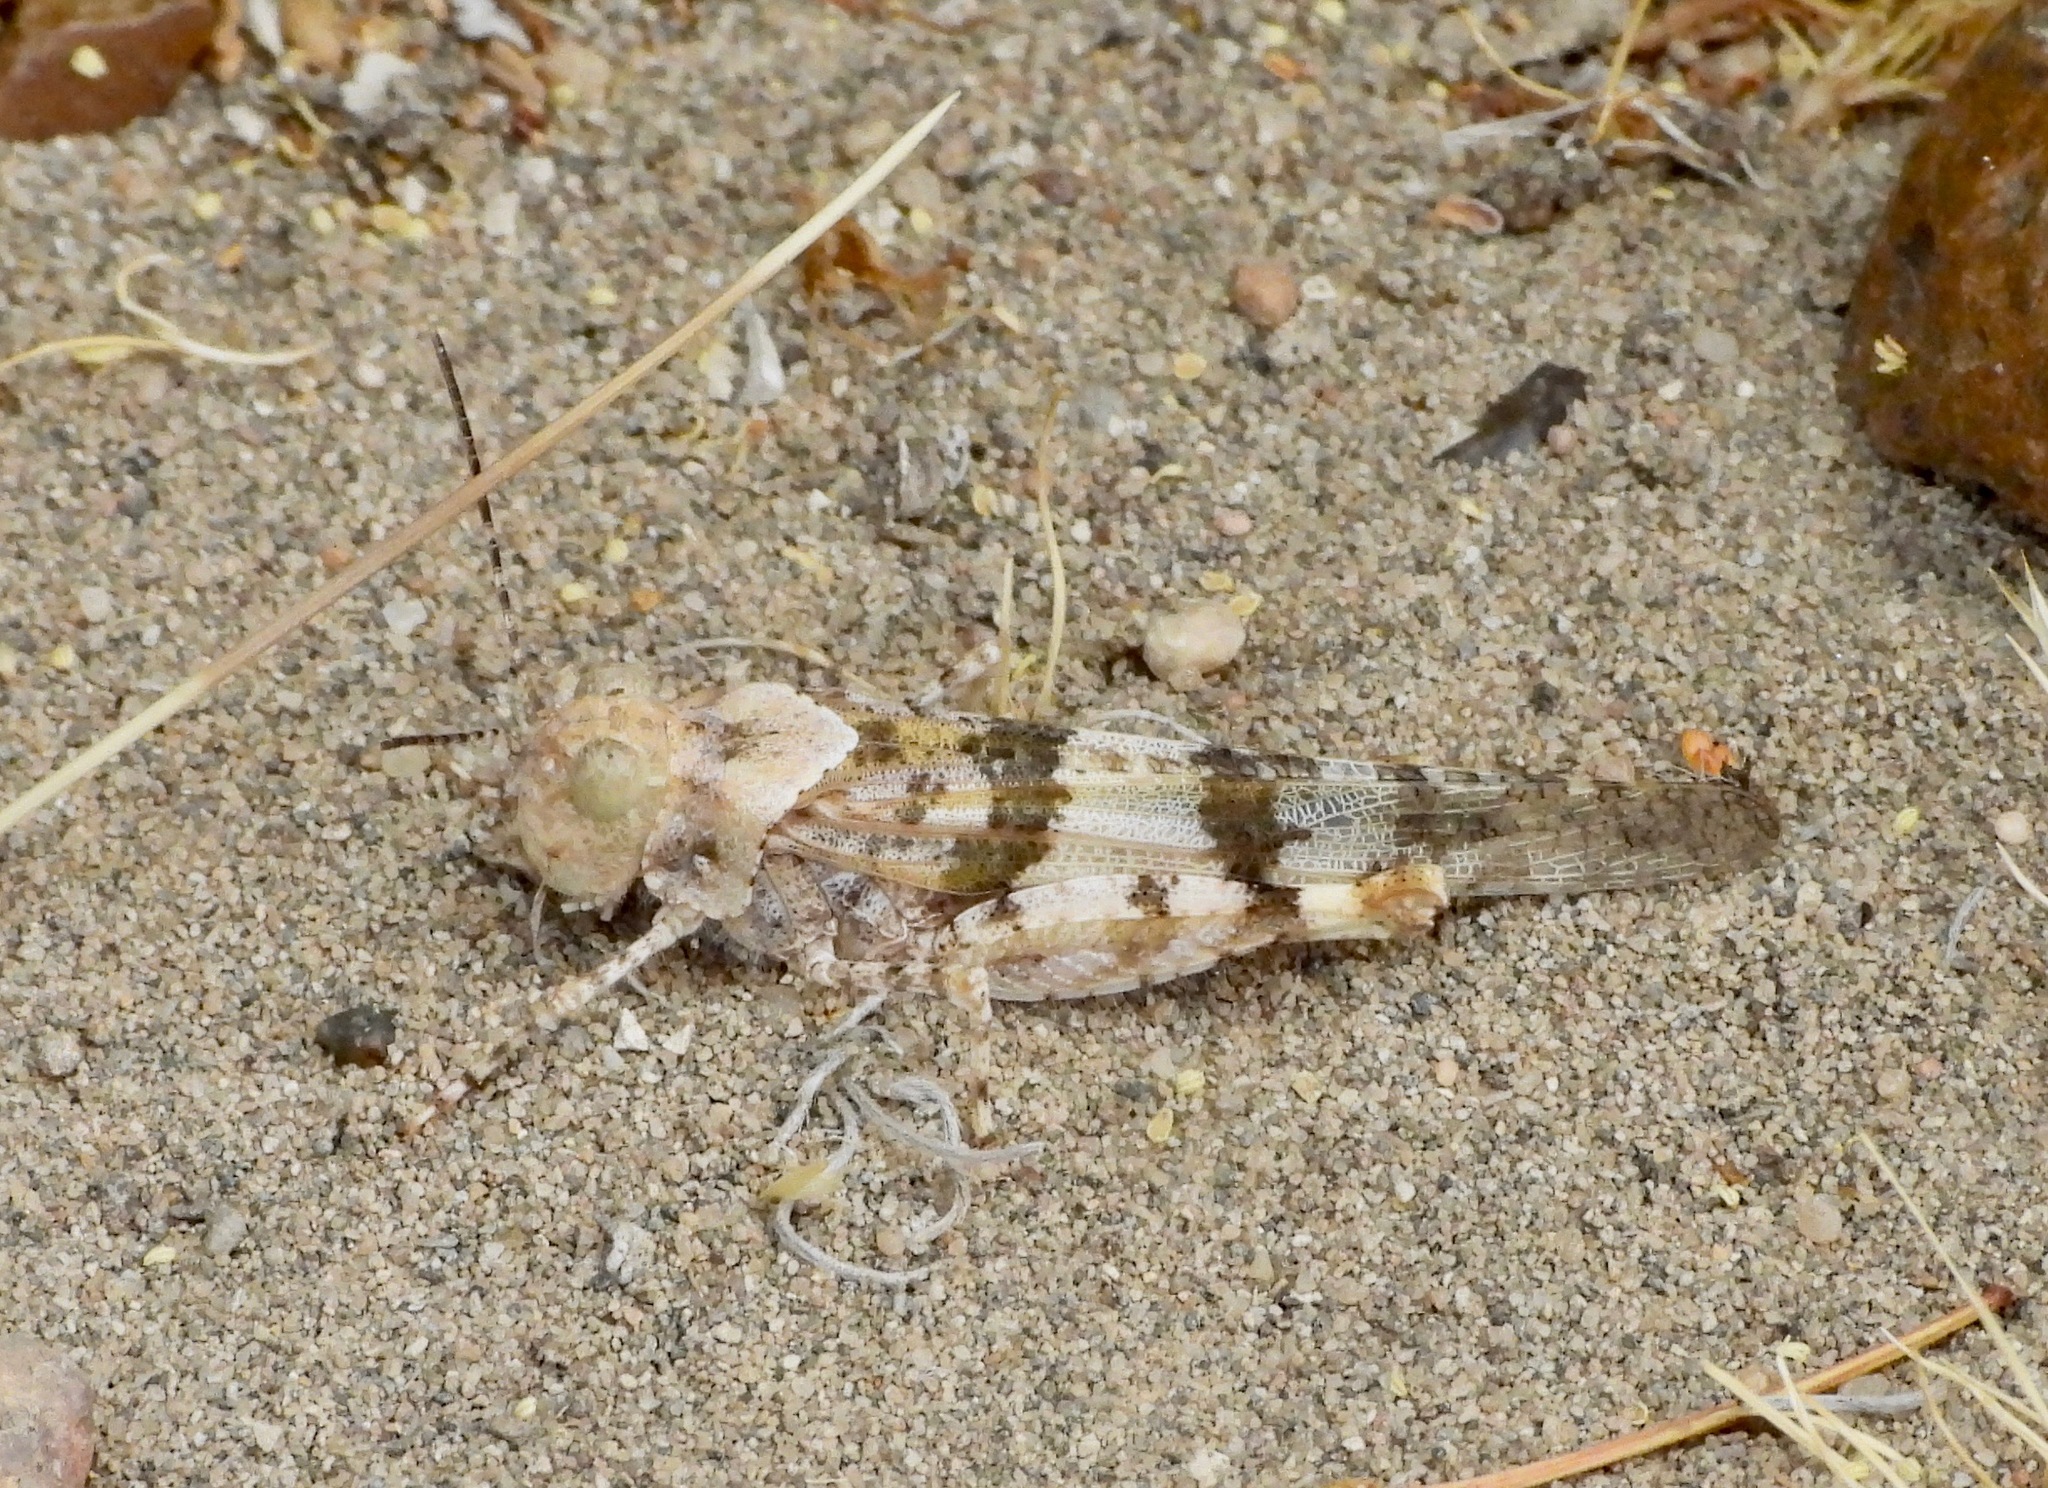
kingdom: Animalia
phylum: Arthropoda
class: Insecta
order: Orthoptera
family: Acrididae
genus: Trimerotropis
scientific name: Trimerotropis pallidipennis
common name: Pallid-winged grasshopper
